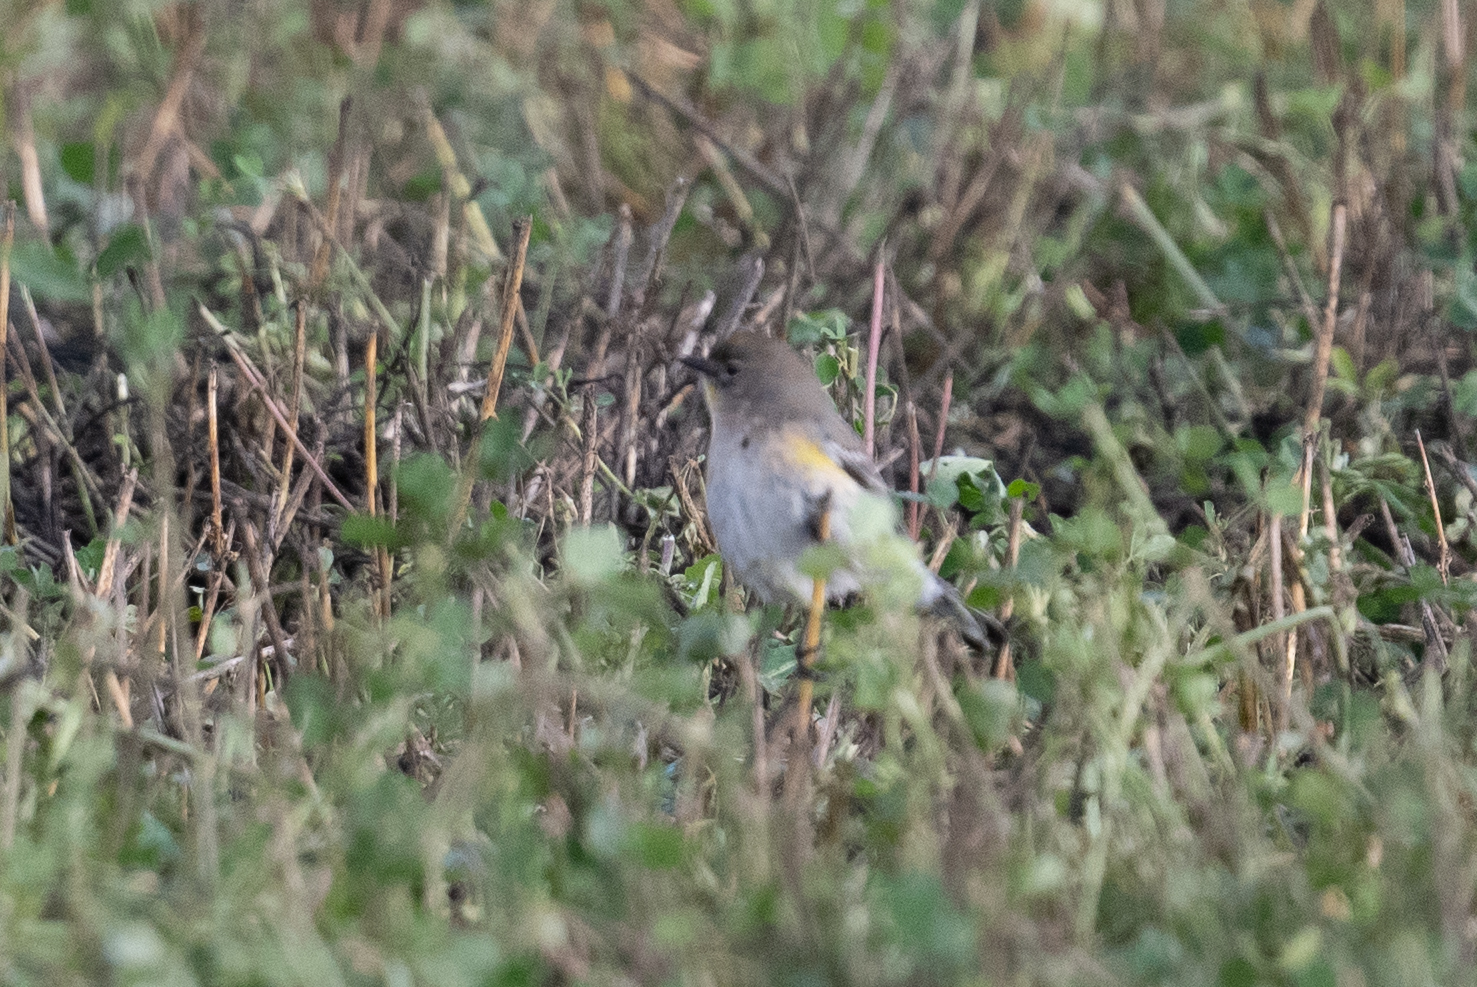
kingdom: Animalia
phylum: Chordata
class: Aves
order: Passeriformes
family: Parulidae
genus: Setophaga
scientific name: Setophaga coronata
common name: Myrtle warbler
